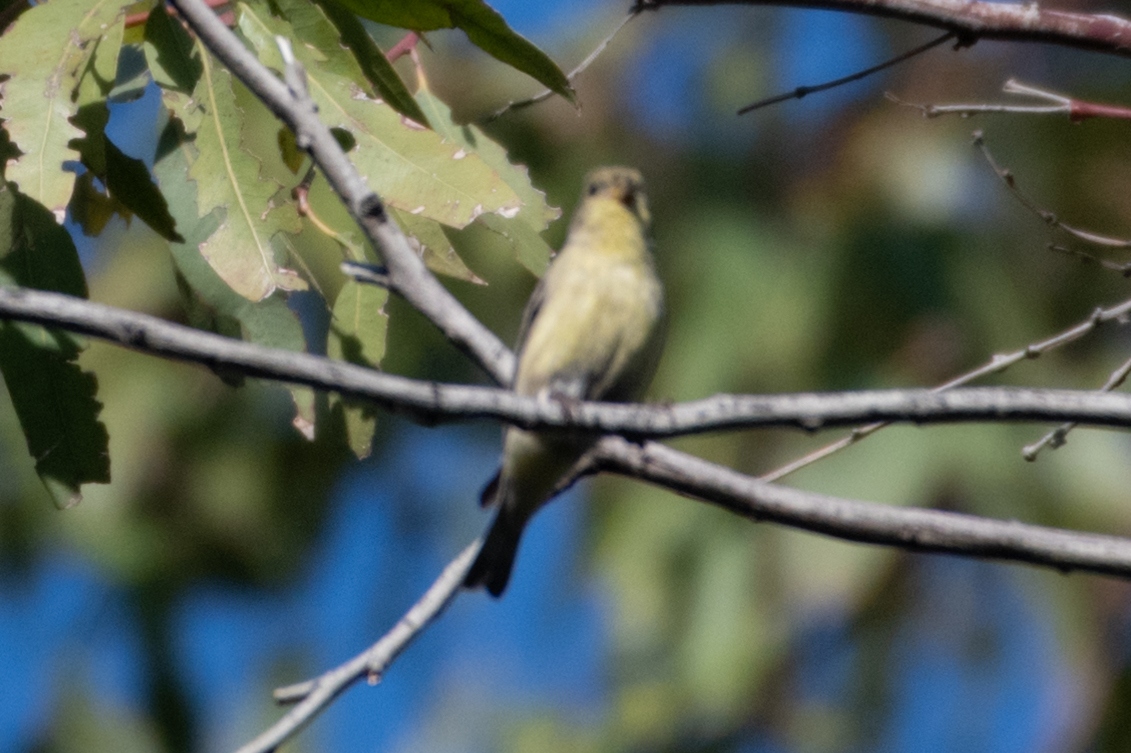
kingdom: Animalia
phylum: Chordata
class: Aves
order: Passeriformes
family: Fringillidae
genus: Spinus
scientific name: Spinus psaltria
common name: Lesser goldfinch
